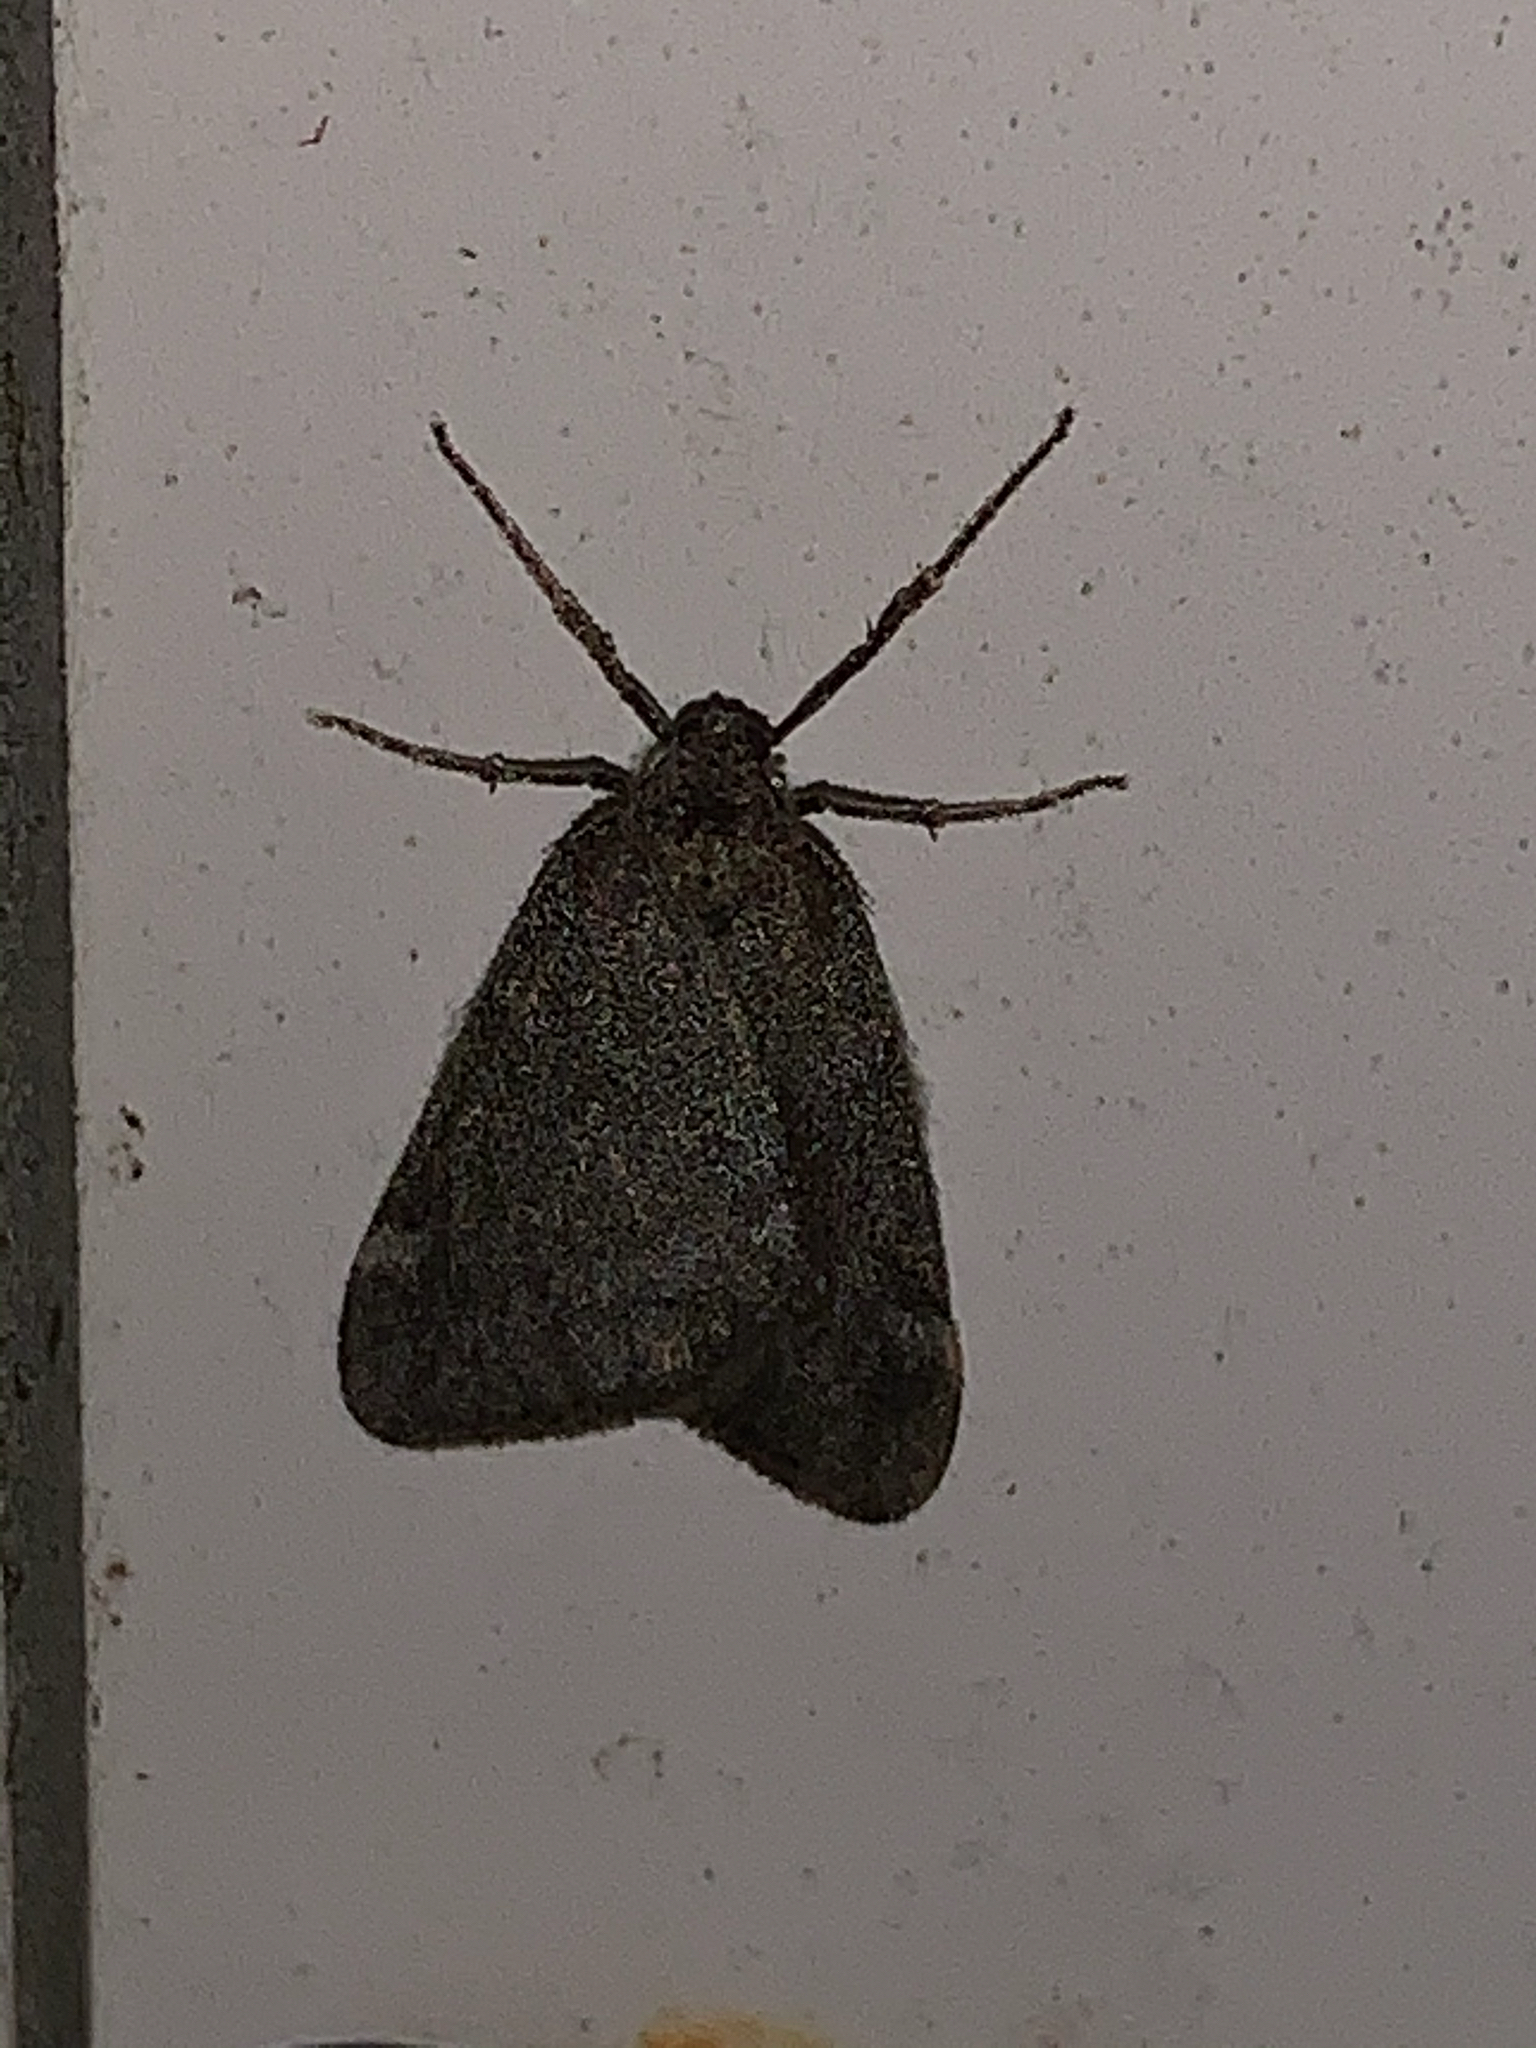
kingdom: Animalia
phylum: Arthropoda
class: Insecta
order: Lepidoptera
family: Geometridae
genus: Alsophila
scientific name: Alsophila pometaria
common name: Fall cankerworm
